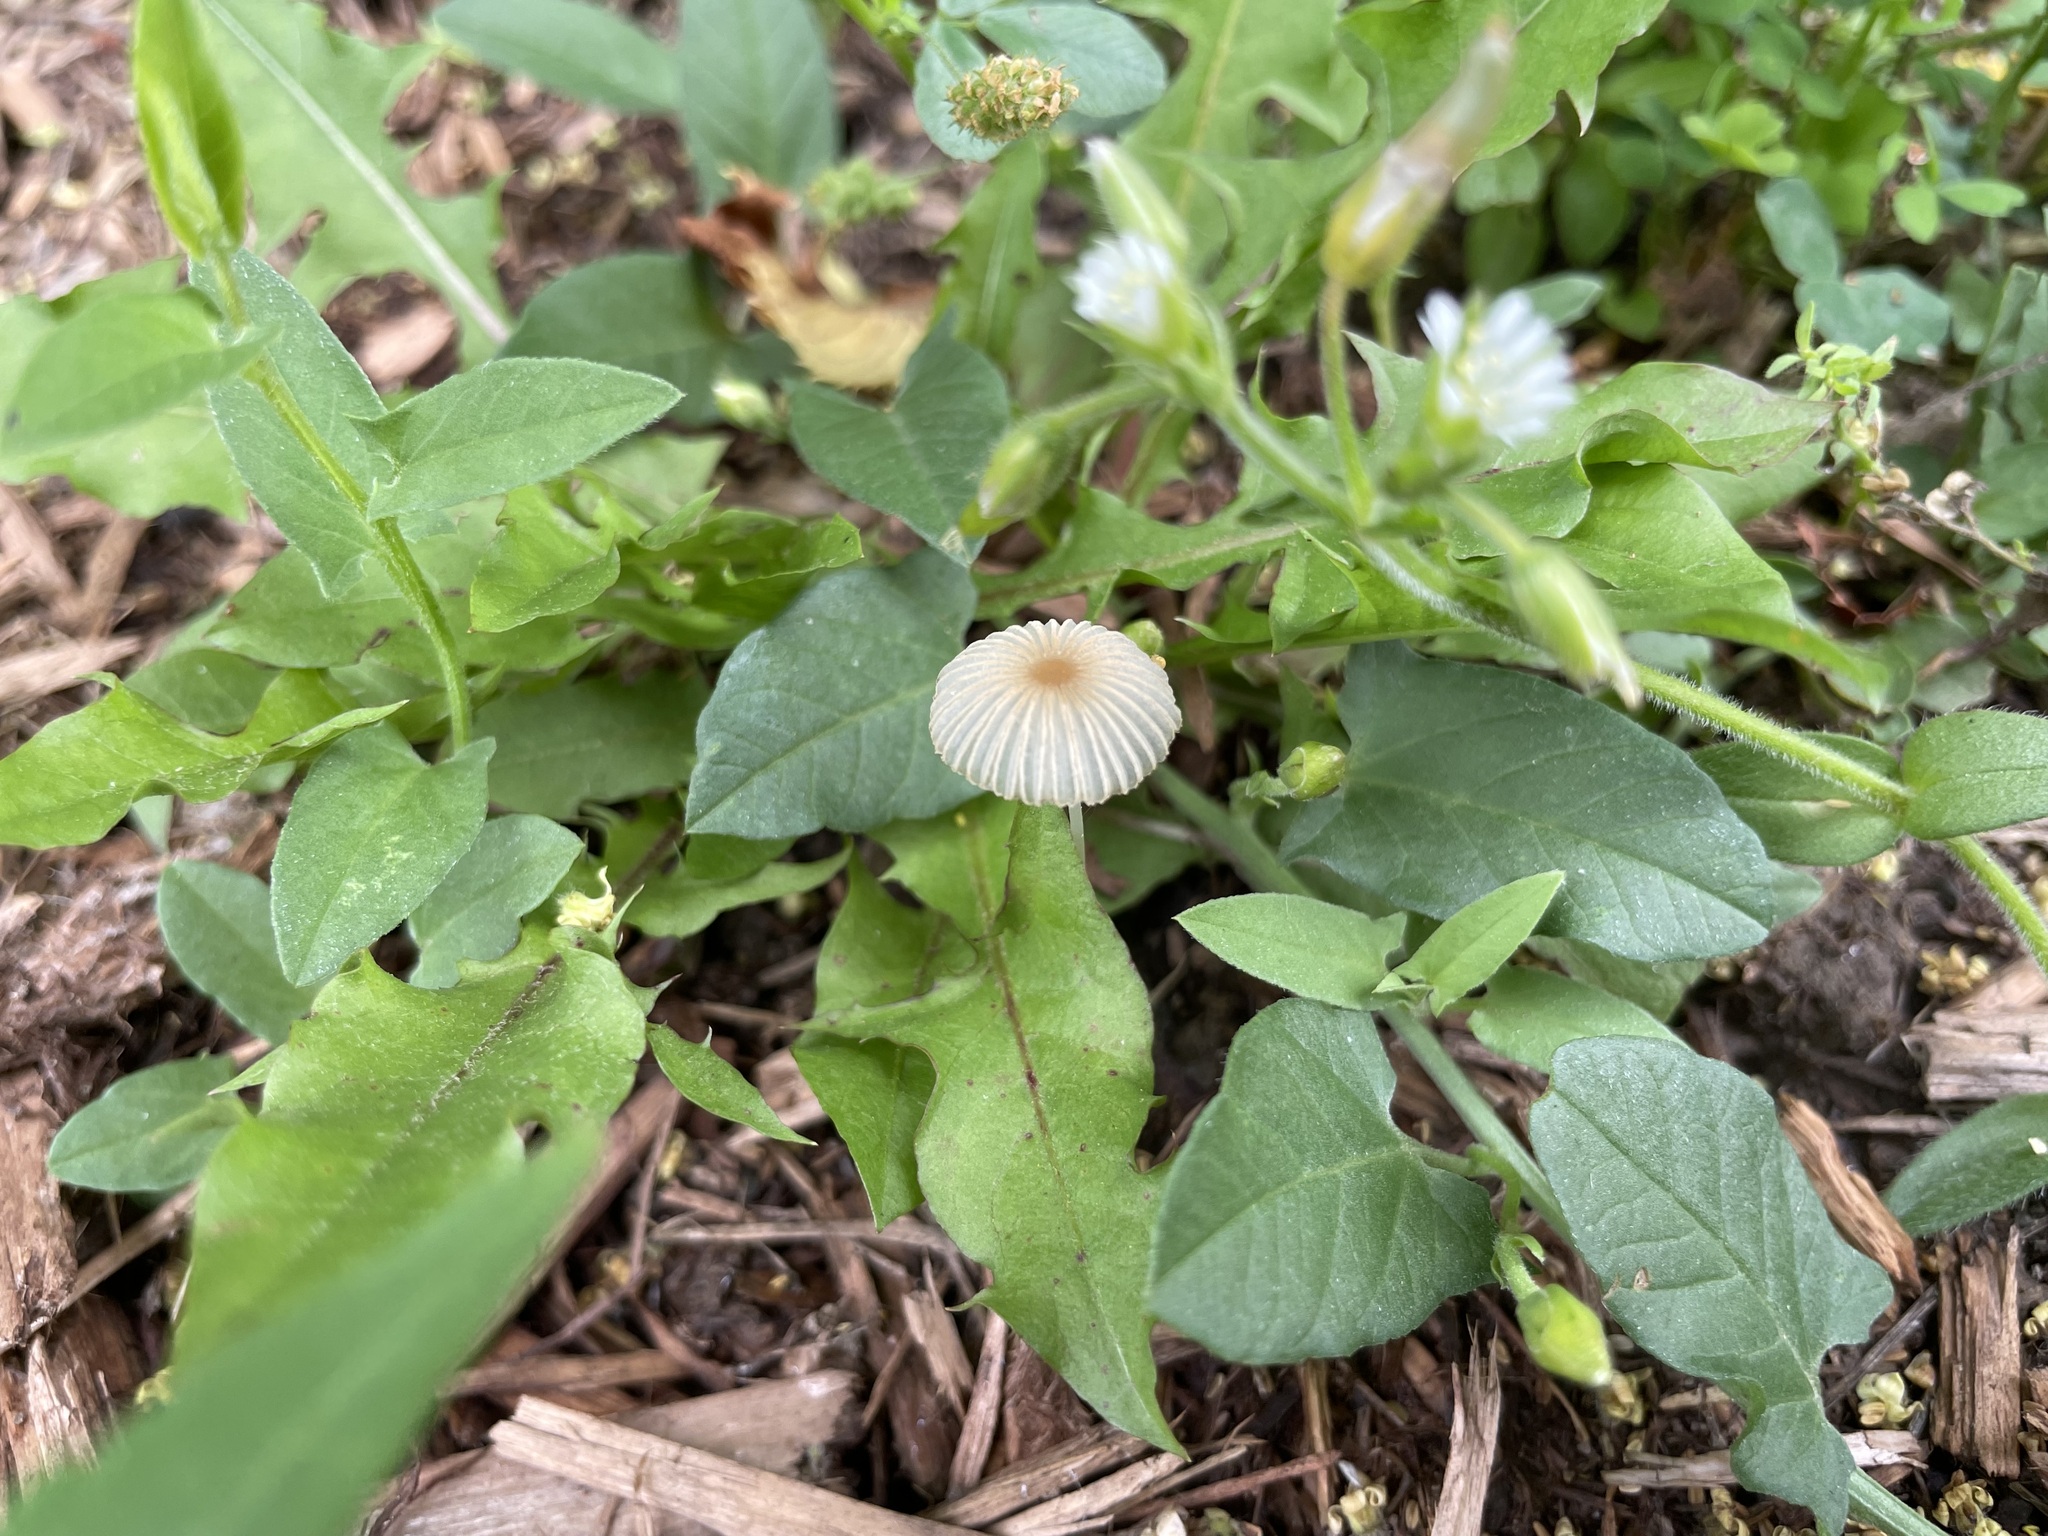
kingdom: Fungi
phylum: Basidiomycota
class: Agaricomycetes
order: Agaricales
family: Psathyrellaceae
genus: Parasola
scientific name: Parasola plicatilis
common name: Pleated inkcap
